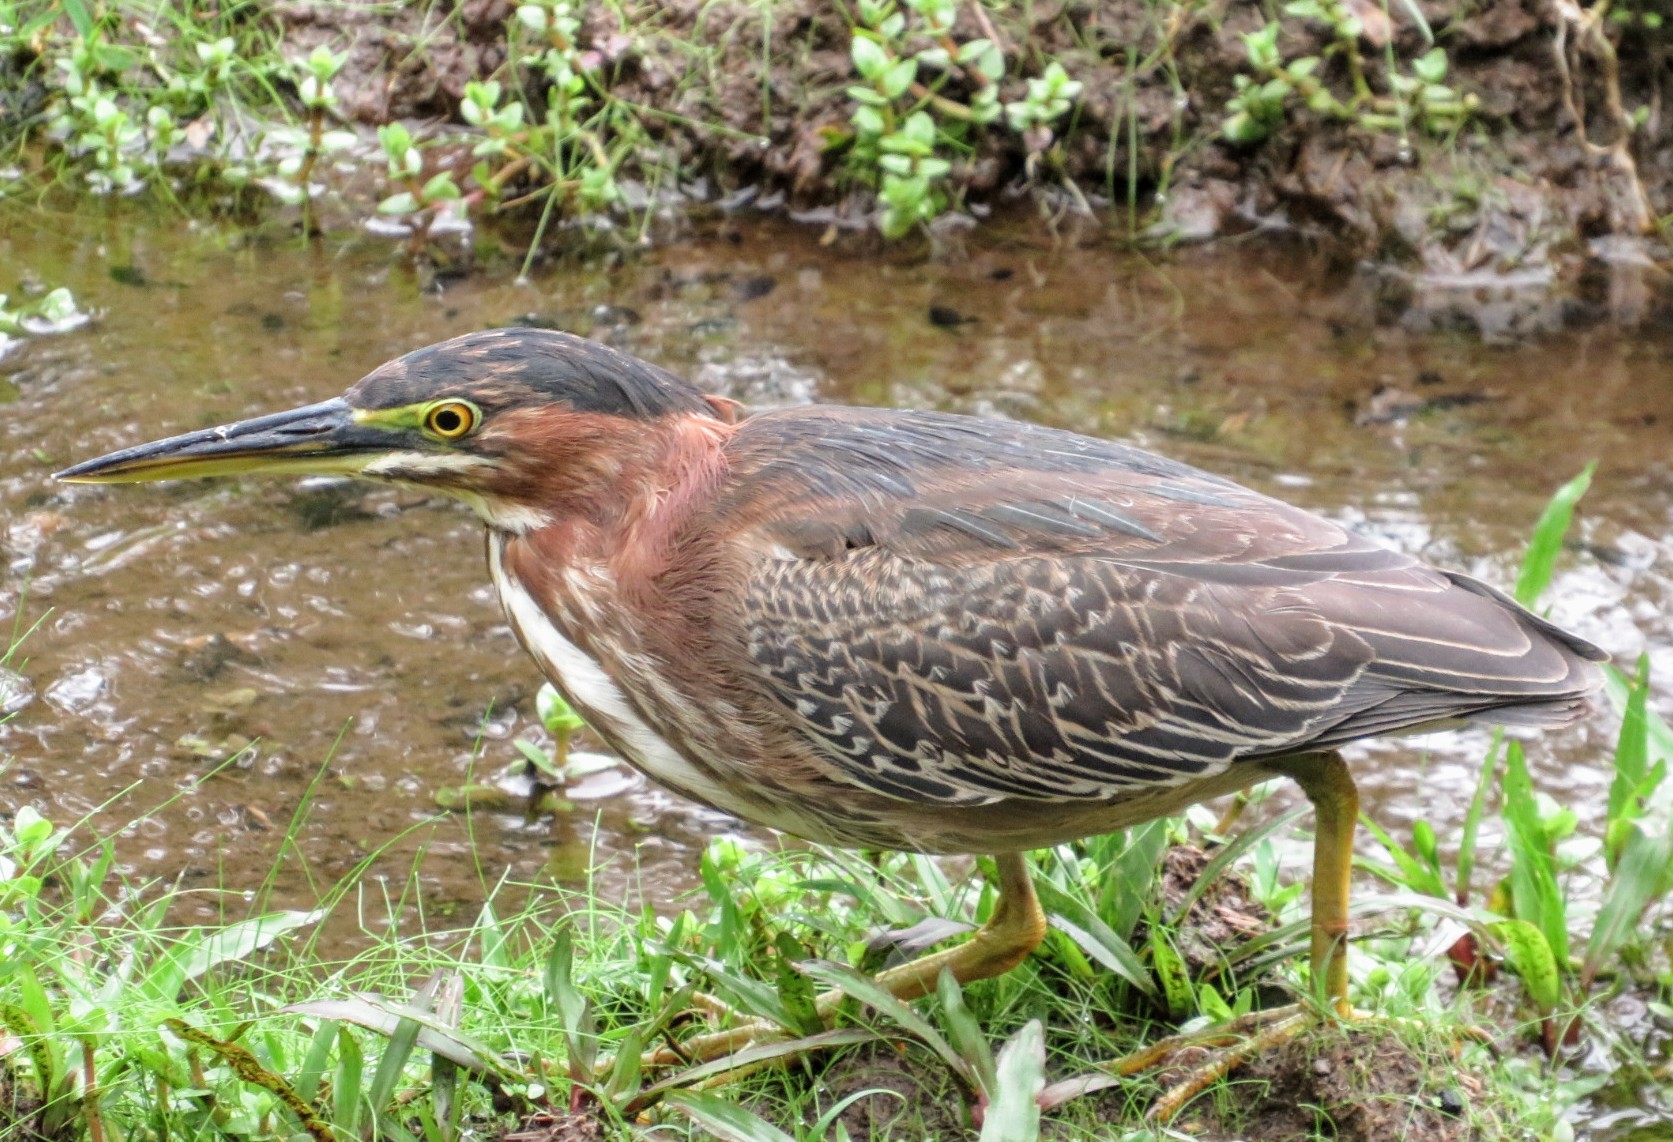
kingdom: Animalia
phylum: Chordata
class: Aves
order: Pelecaniformes
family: Ardeidae
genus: Butorides
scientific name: Butorides virescens
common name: Green heron
